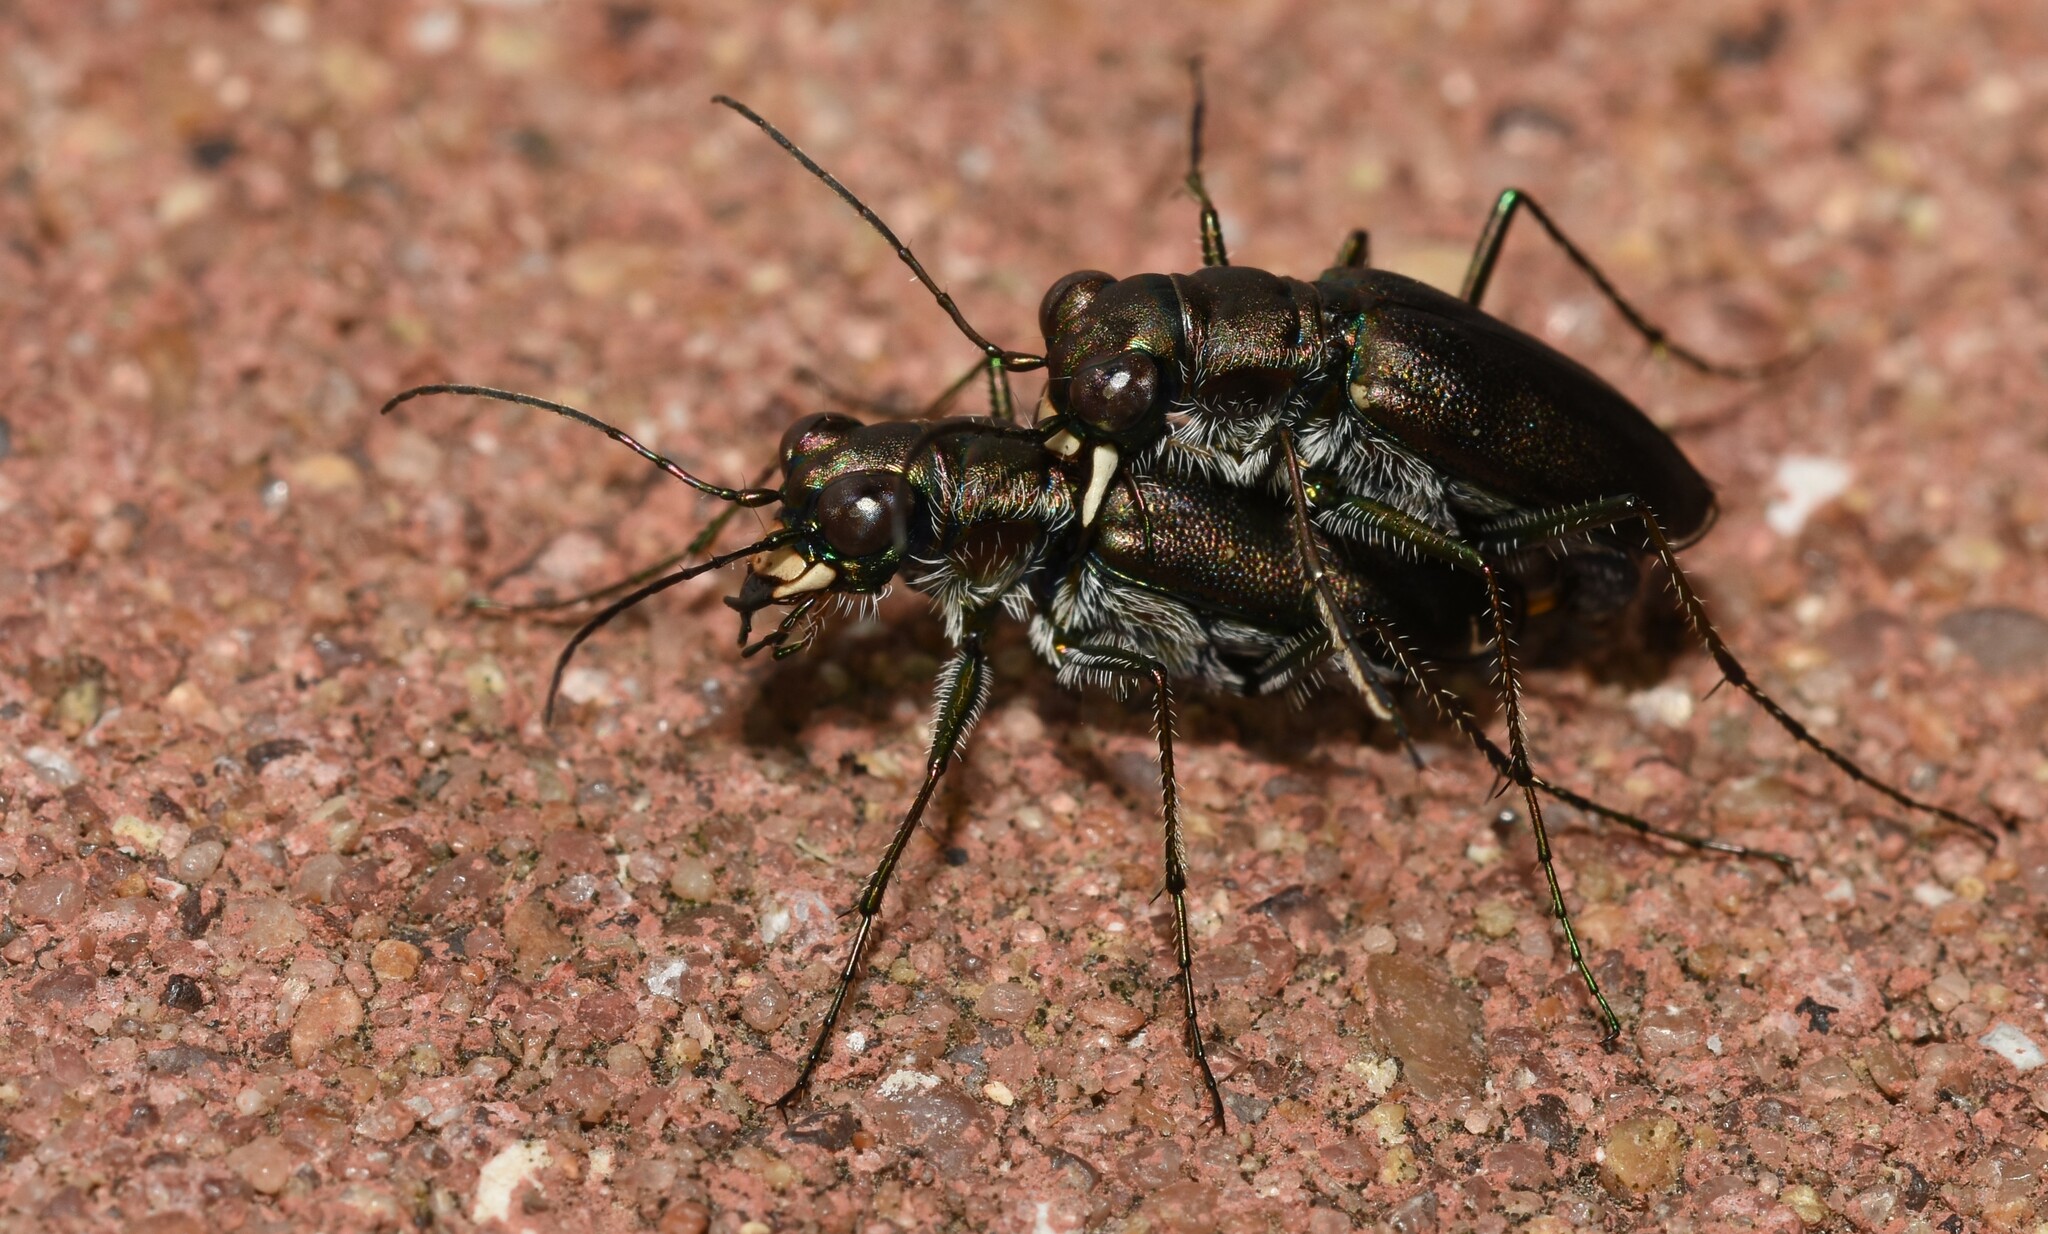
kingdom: Animalia
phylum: Arthropoda
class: Insecta
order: Coleoptera
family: Carabidae
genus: Cicindela
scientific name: Cicindela punctulata
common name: Punctured tiger beetle
